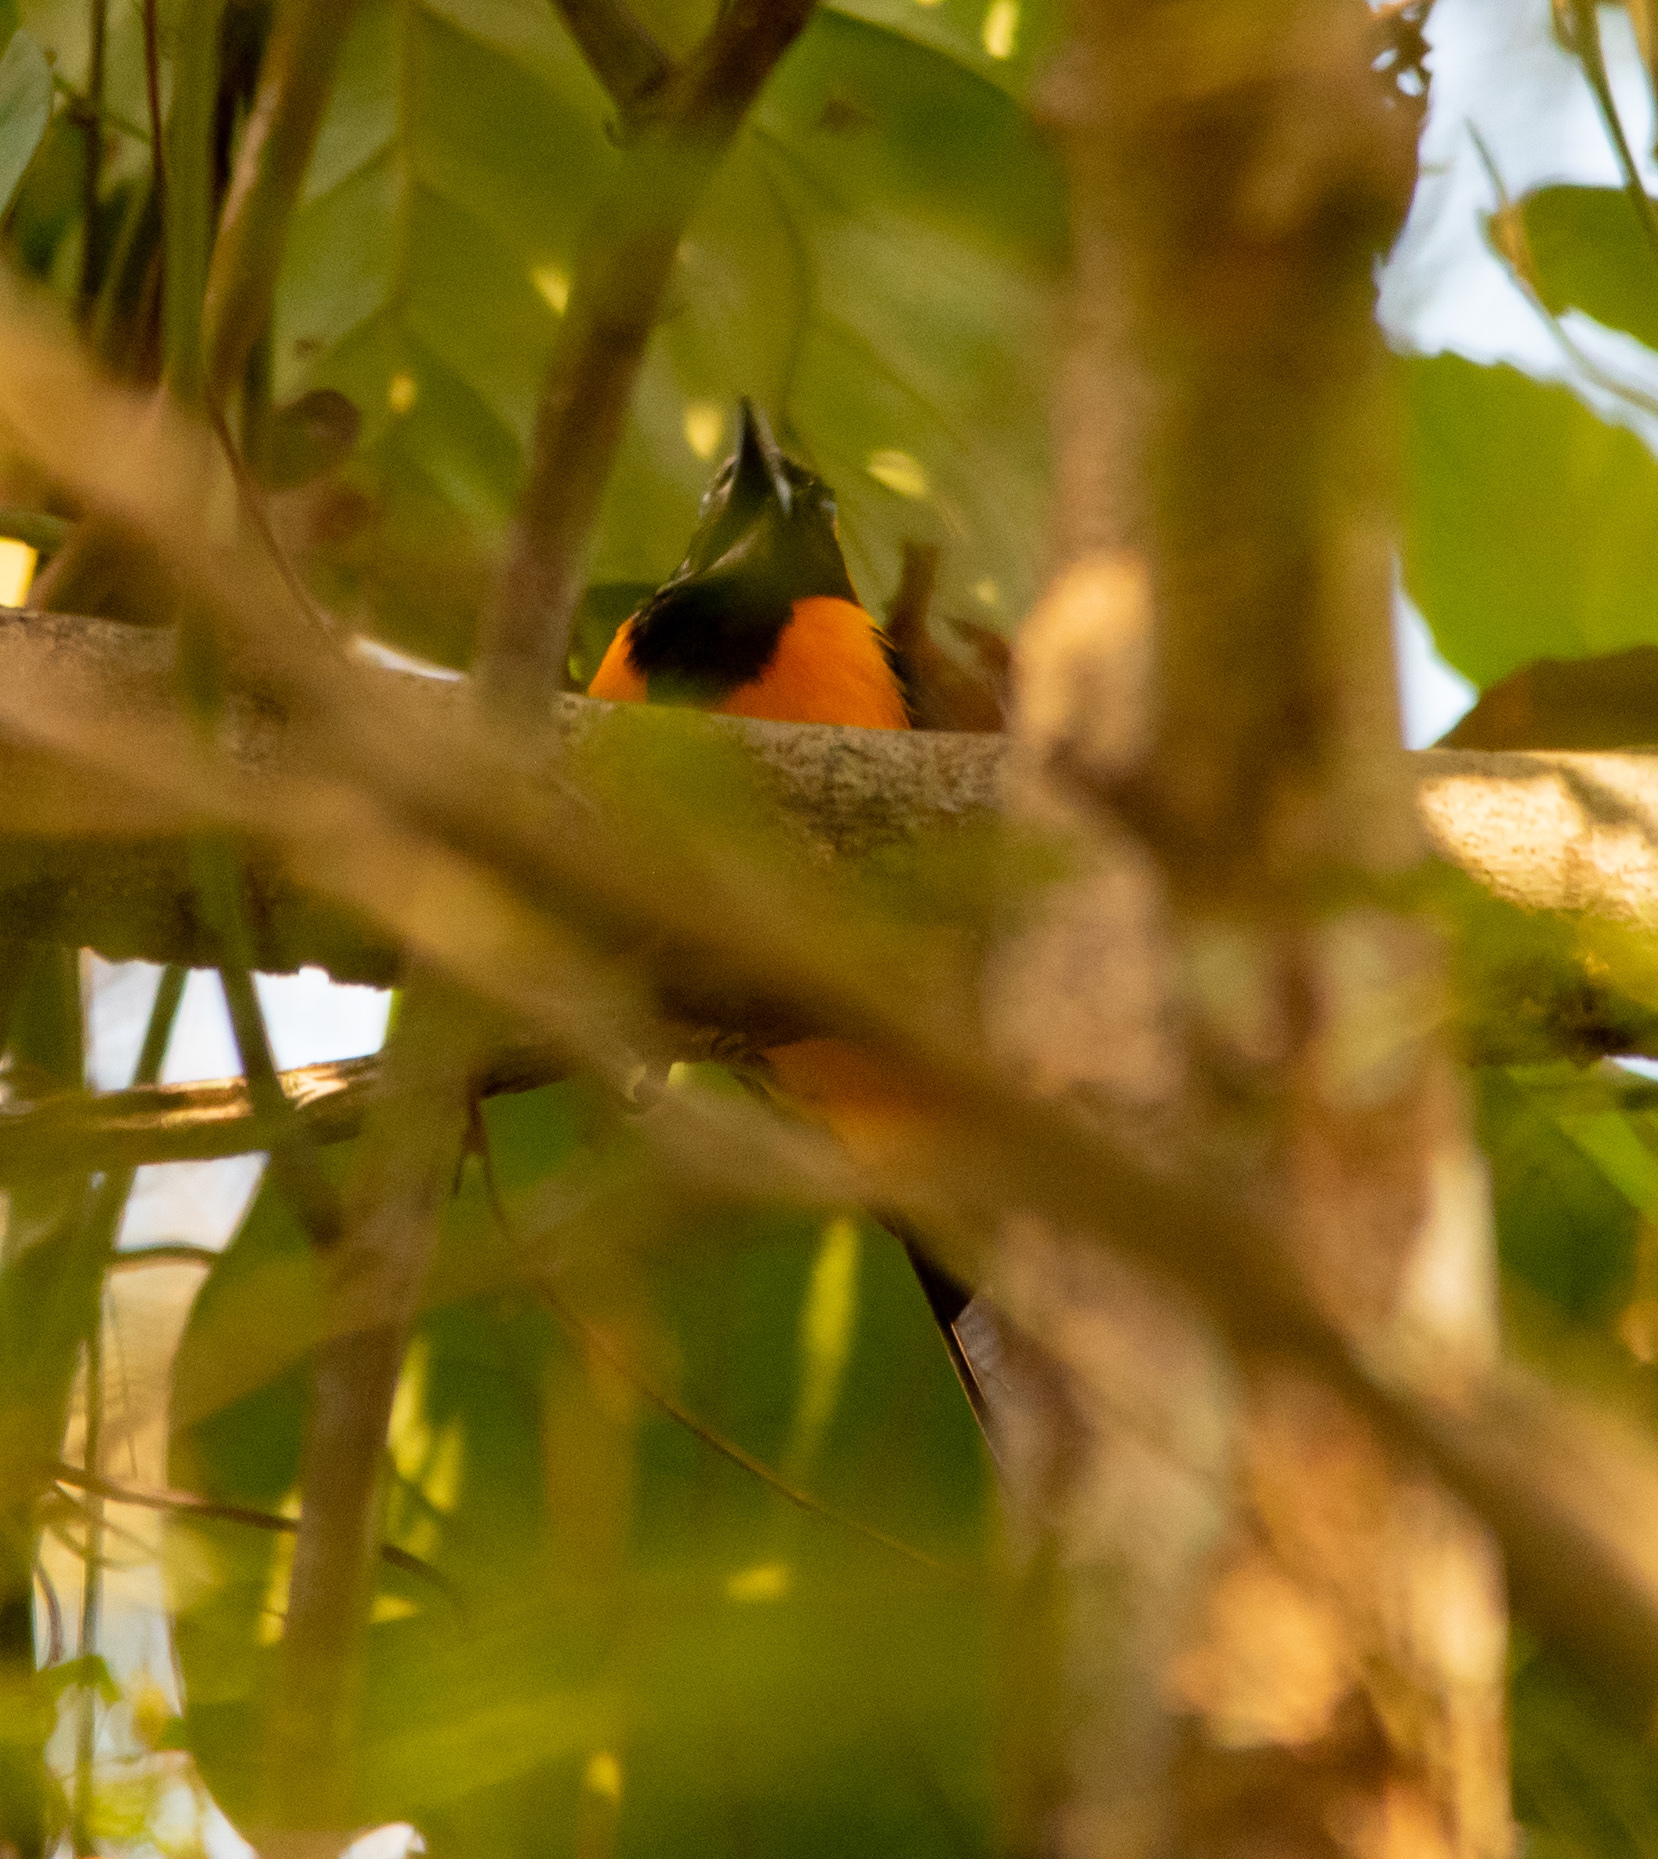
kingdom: Animalia
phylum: Chordata
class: Aves
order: Passeriformes
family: Icteridae
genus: Icterus
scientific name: Icterus galbula
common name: Baltimore oriole
